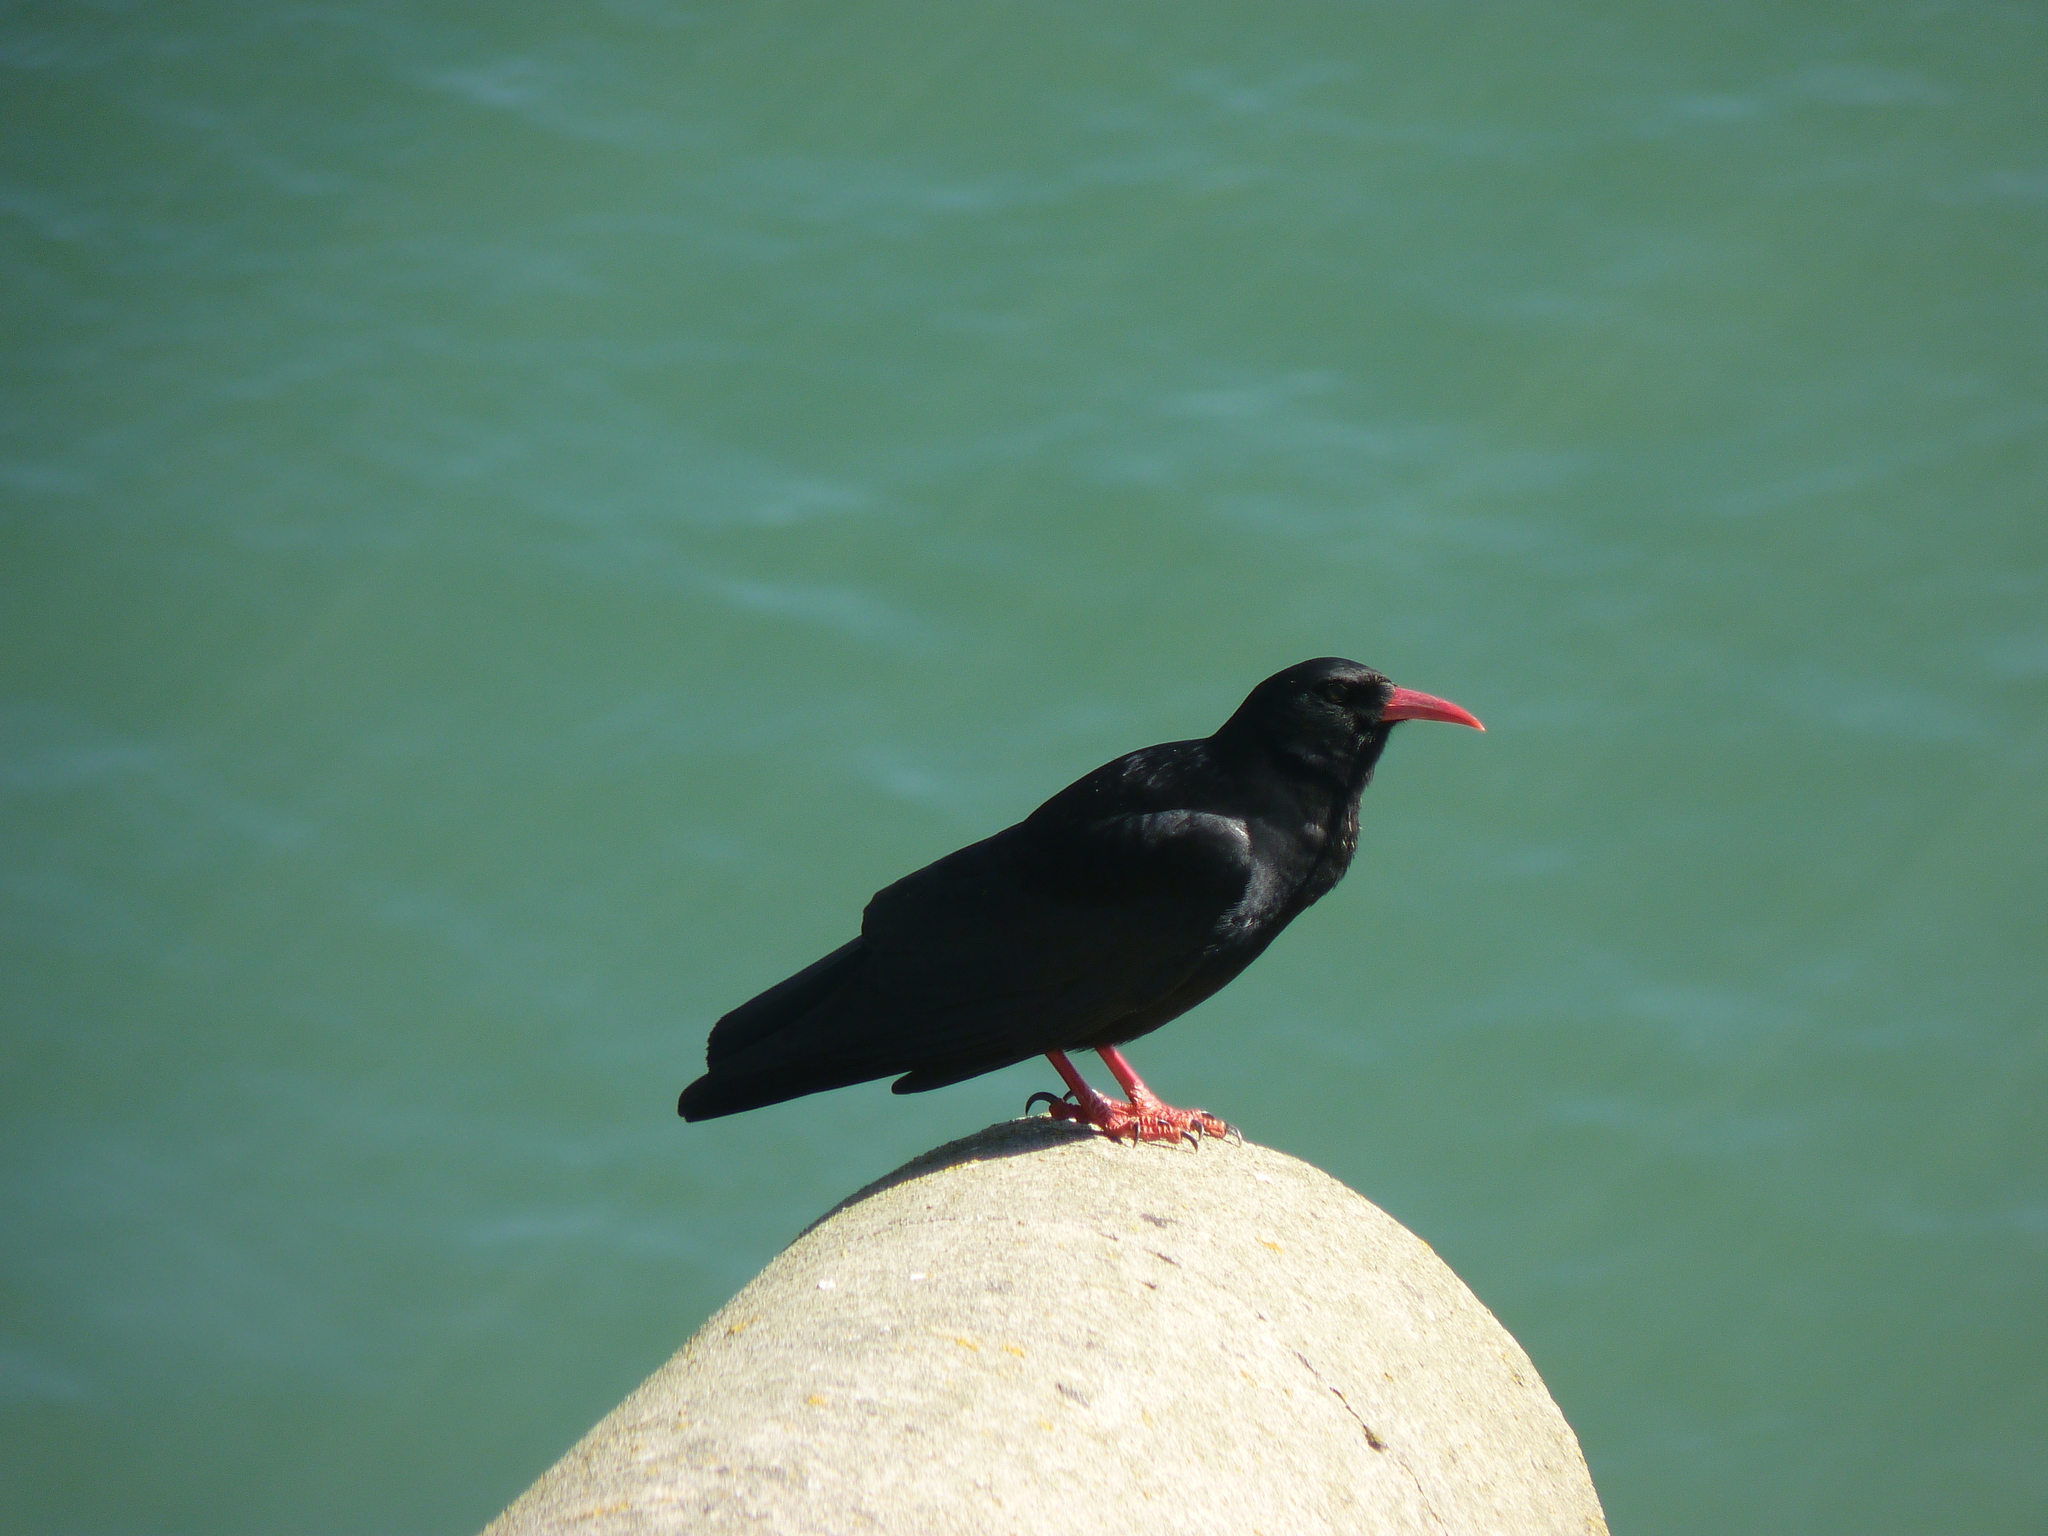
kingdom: Animalia
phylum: Chordata
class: Aves
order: Passeriformes
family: Corvidae
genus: Pyrrhocorax
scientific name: Pyrrhocorax pyrrhocorax
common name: Red-billed chough
